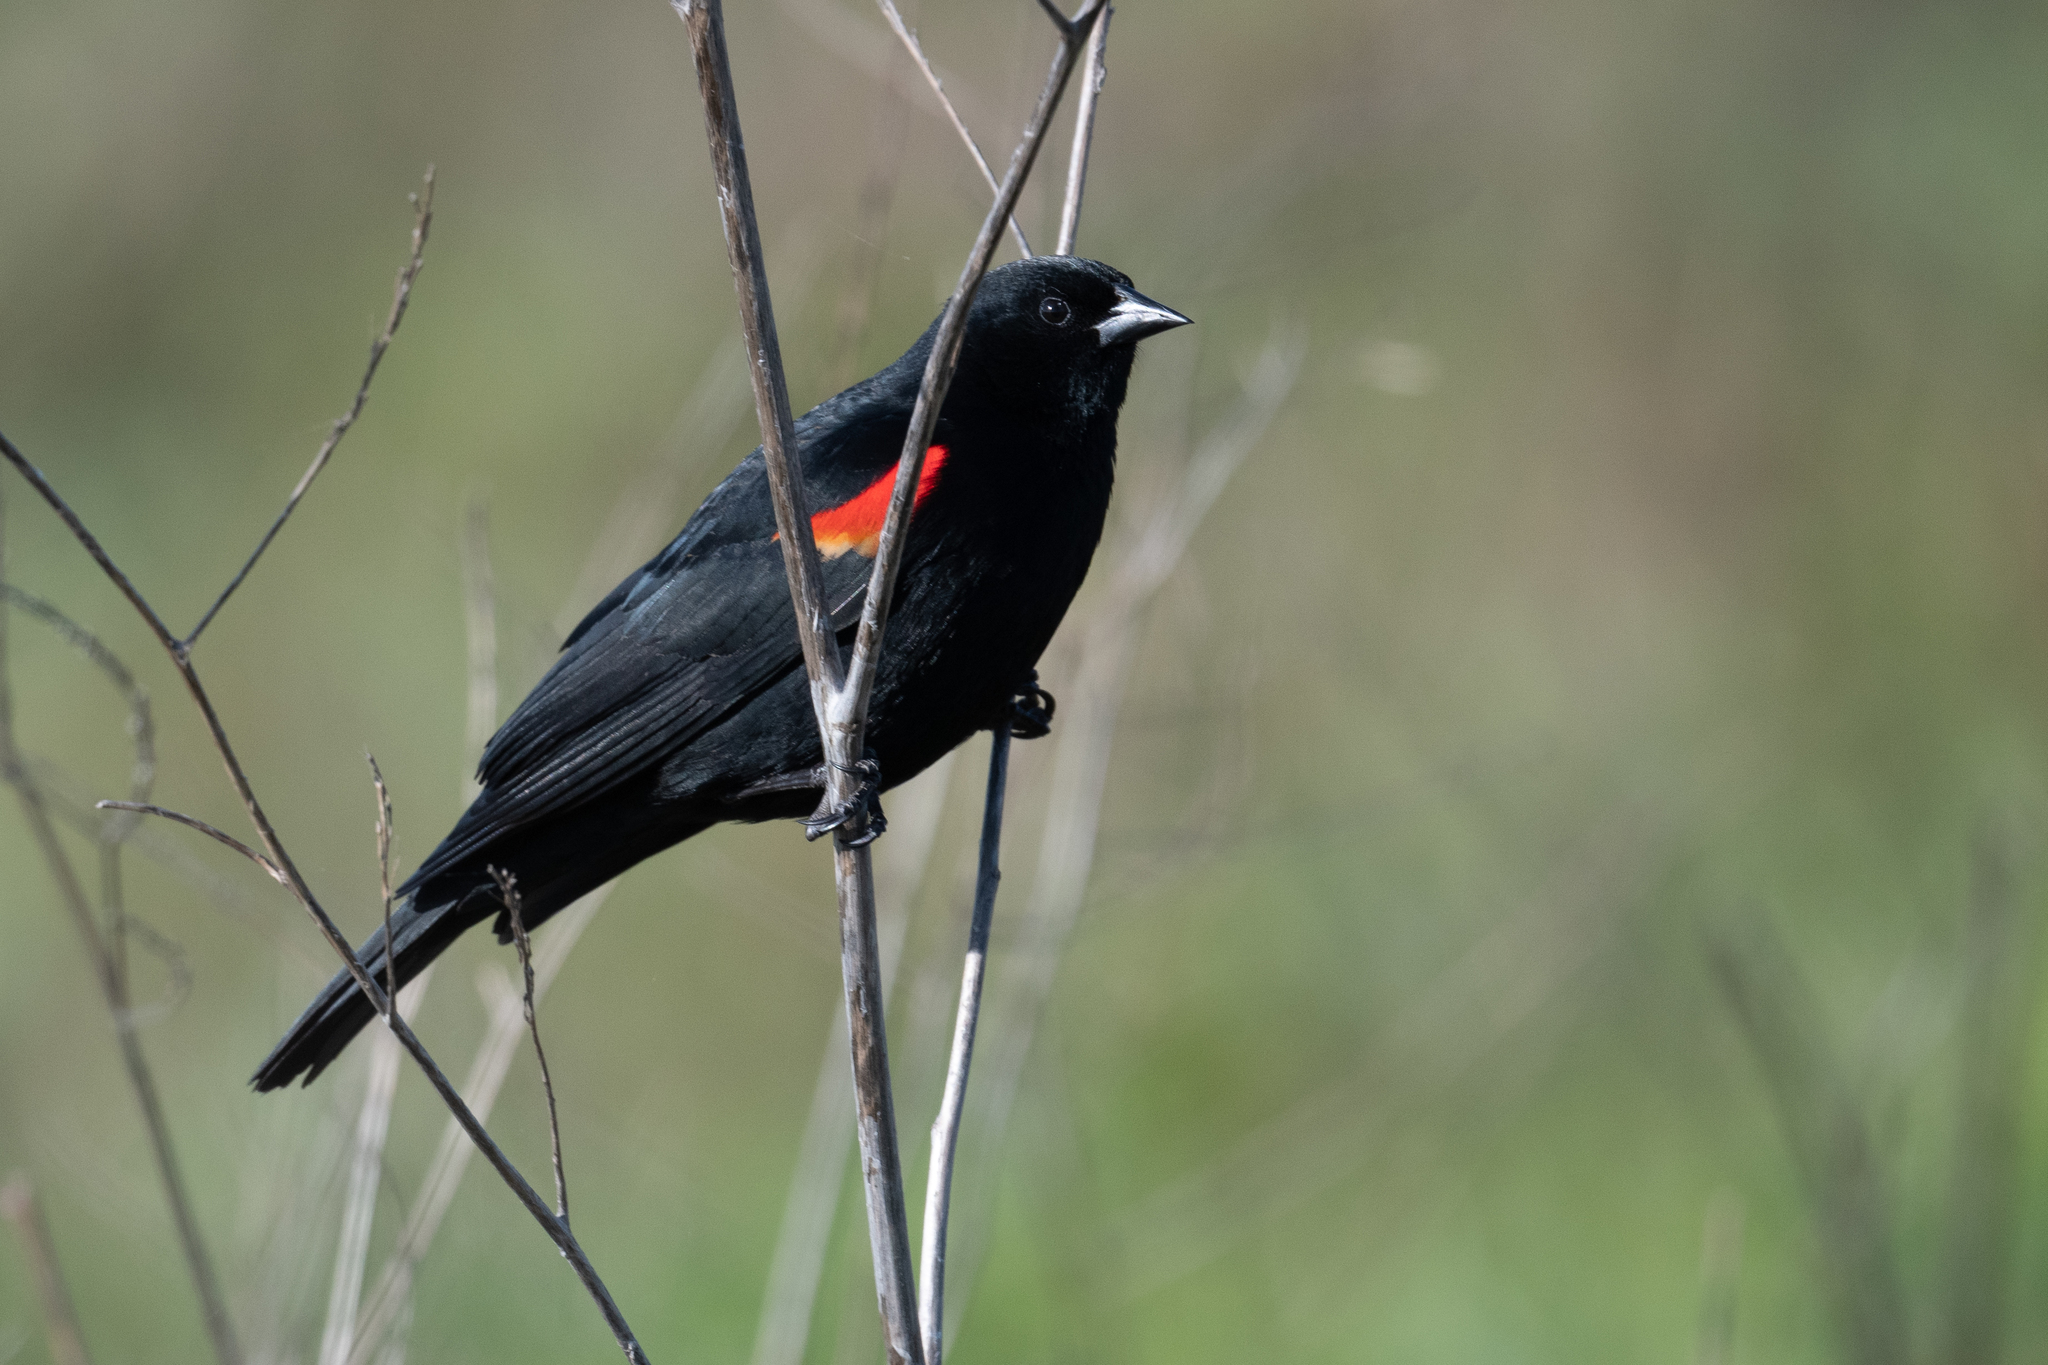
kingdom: Animalia
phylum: Chordata
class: Aves
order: Passeriformes
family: Icteridae
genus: Agelaius
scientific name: Agelaius phoeniceus
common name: Red-winged blackbird
